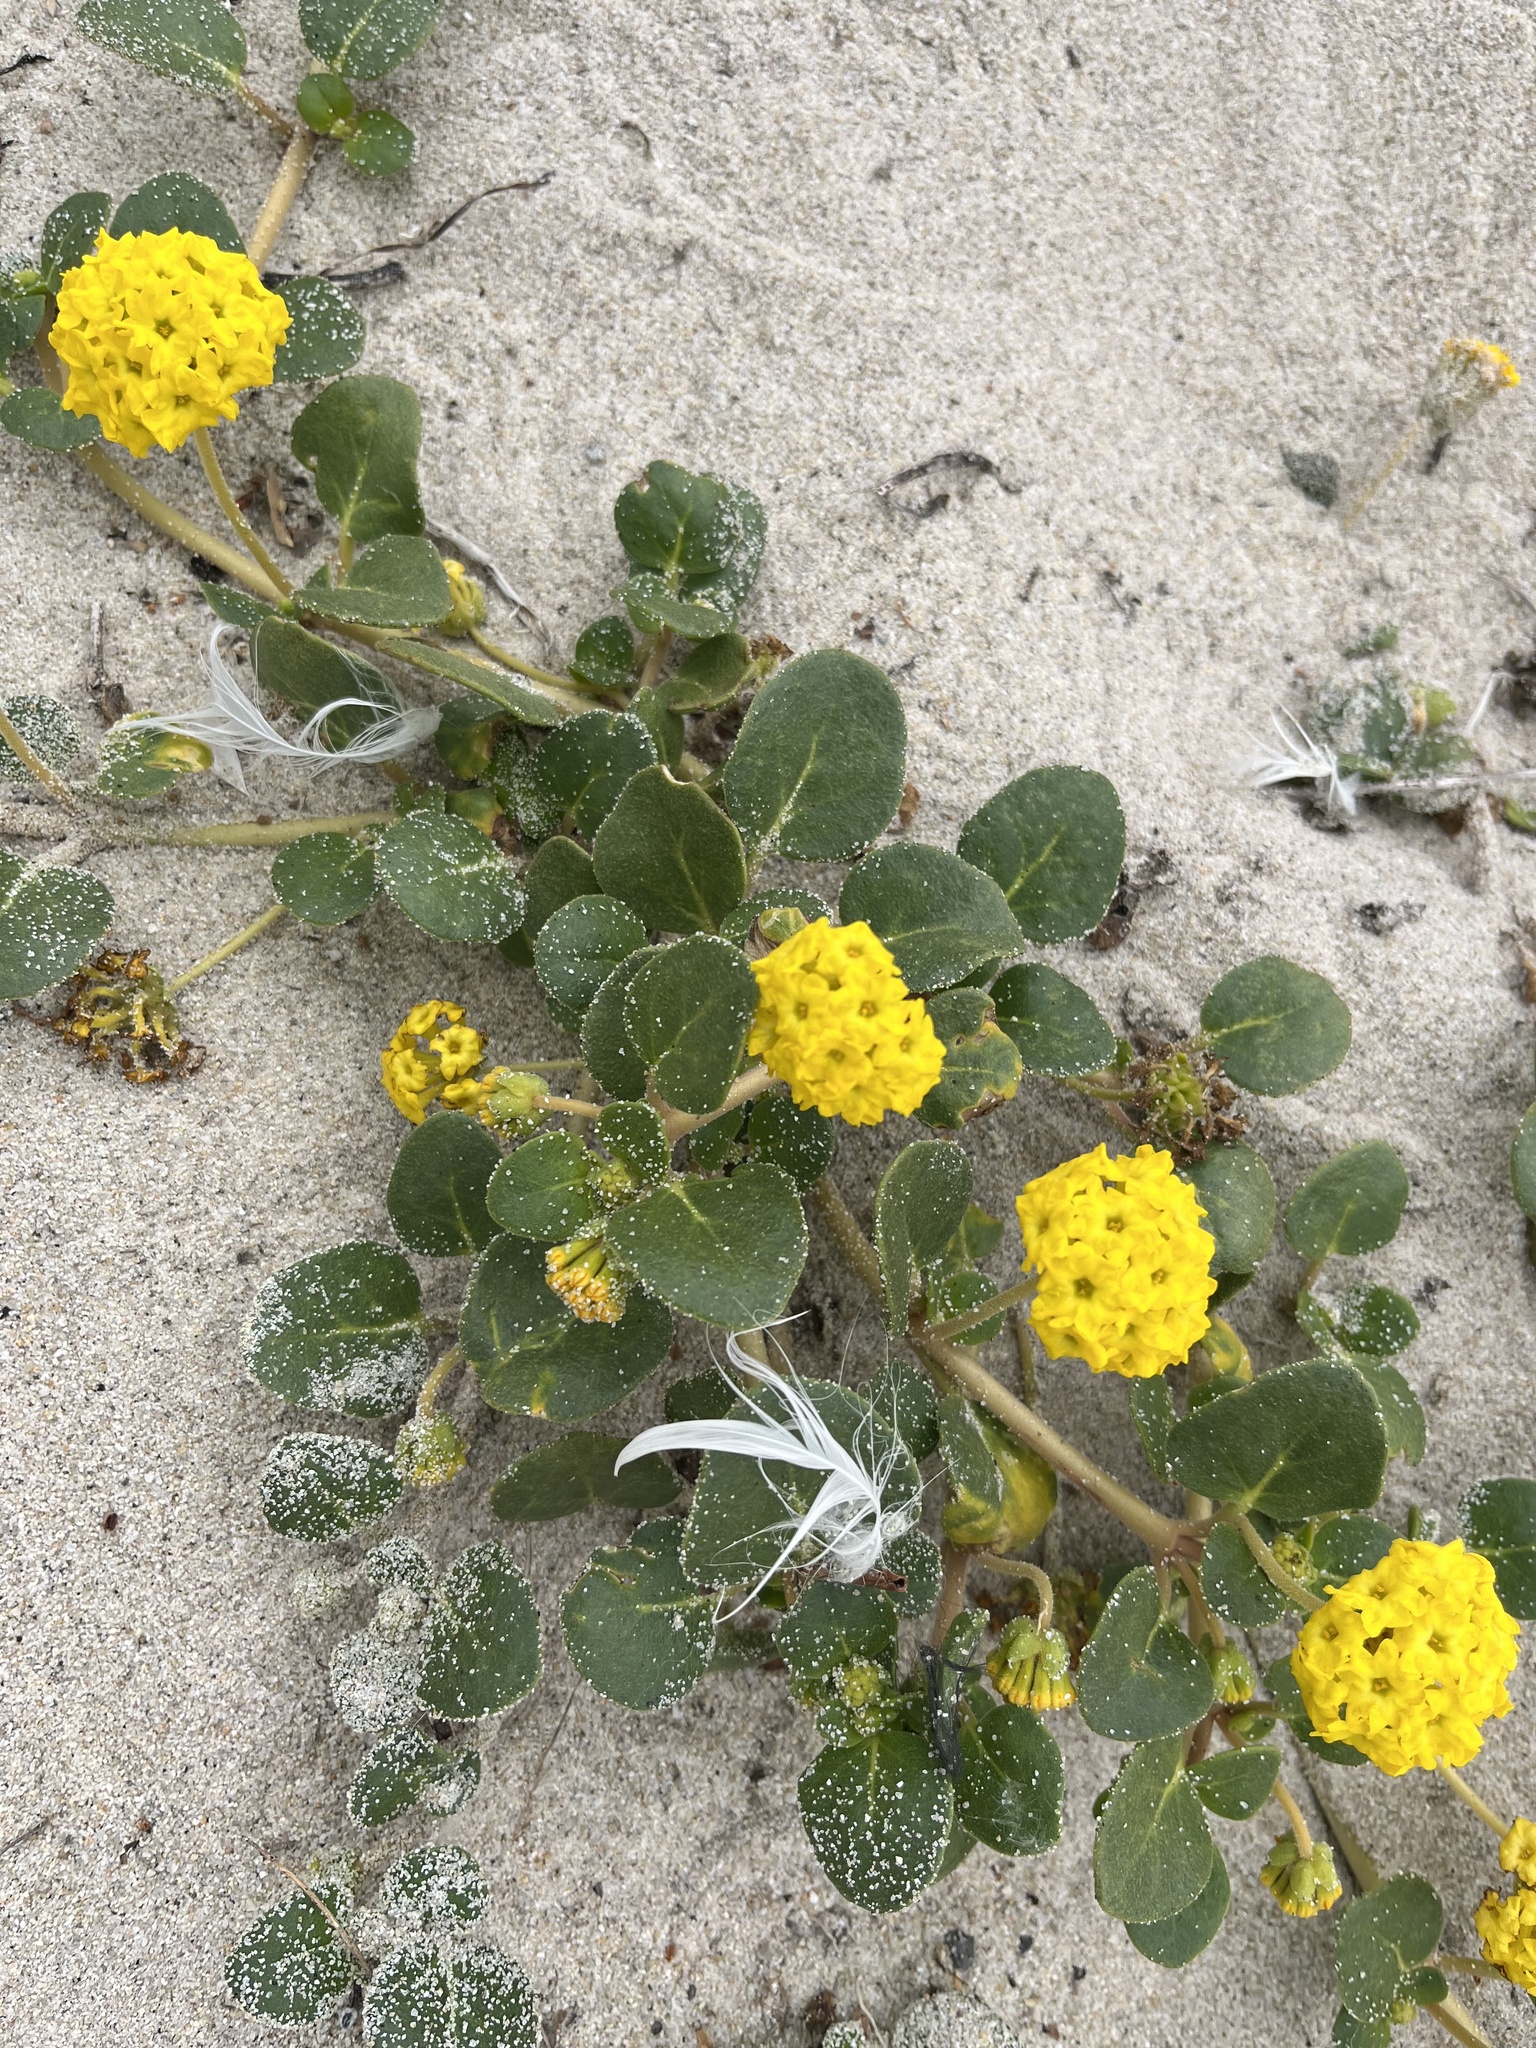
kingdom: Plantae
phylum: Tracheophyta
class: Magnoliopsida
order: Caryophyllales
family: Nyctaginaceae
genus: Abronia
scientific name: Abronia latifolia
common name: Yellow sand-verbena
